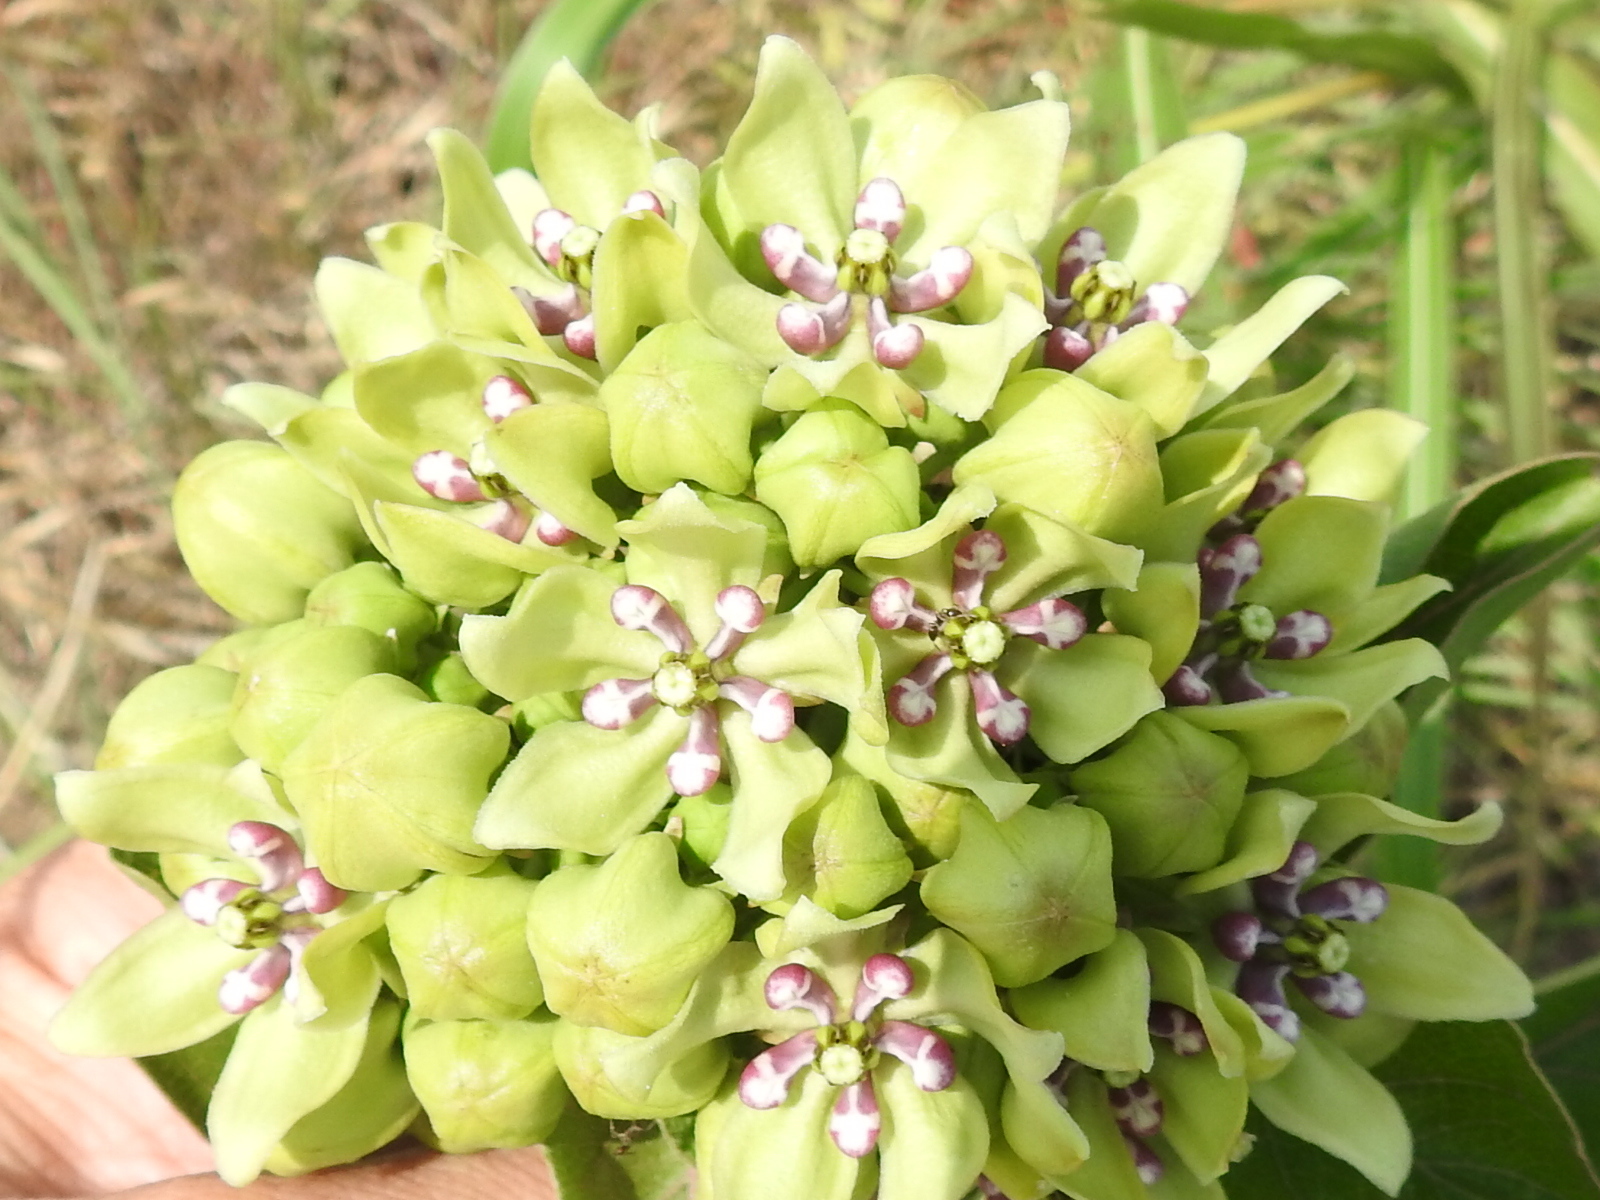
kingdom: Plantae
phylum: Tracheophyta
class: Magnoliopsida
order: Gentianales
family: Apocynaceae
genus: Asclepias
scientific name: Asclepias viridis
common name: Antelope-horns
